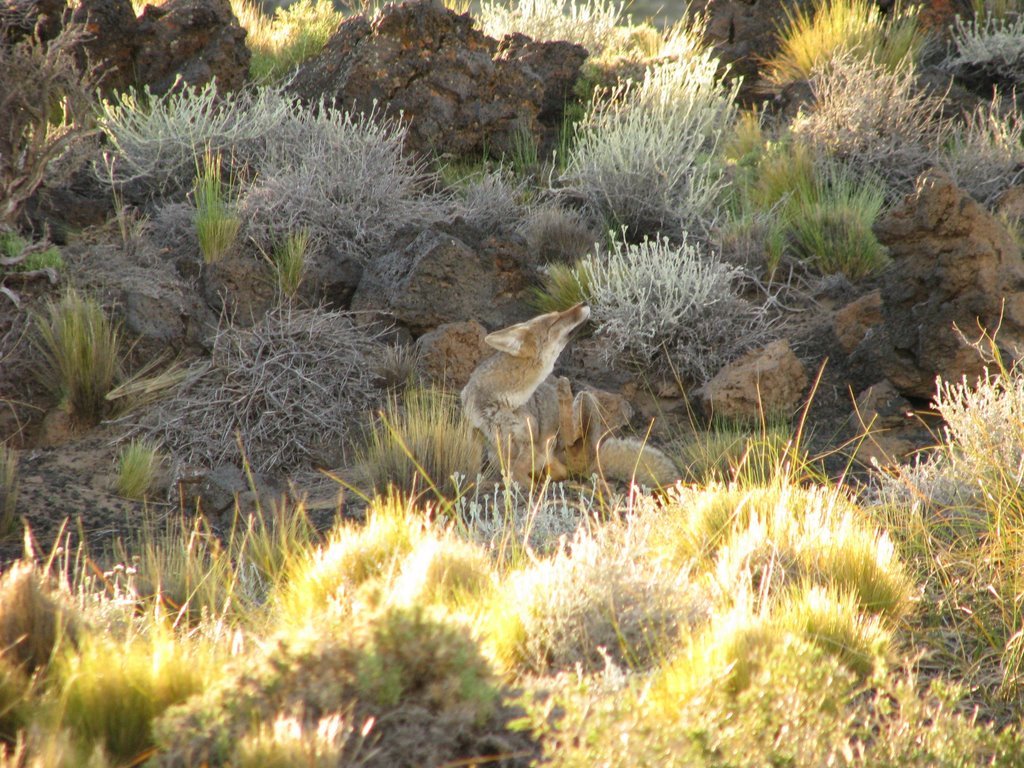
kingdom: Animalia
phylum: Chordata
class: Mammalia
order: Carnivora
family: Canidae
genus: Lycalopex
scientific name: Lycalopex gymnocercus
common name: Pampas fox
